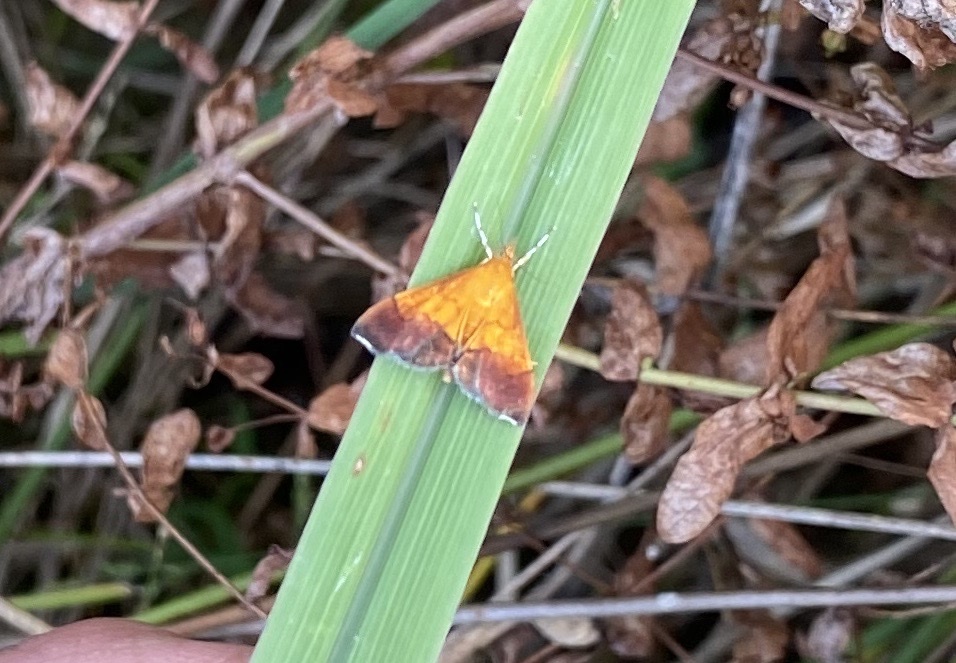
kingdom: Animalia
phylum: Arthropoda
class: Insecta
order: Lepidoptera
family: Crambidae
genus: Pyrausta
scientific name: Pyrausta bicoloralis
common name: Bicolored pyrausta moth
